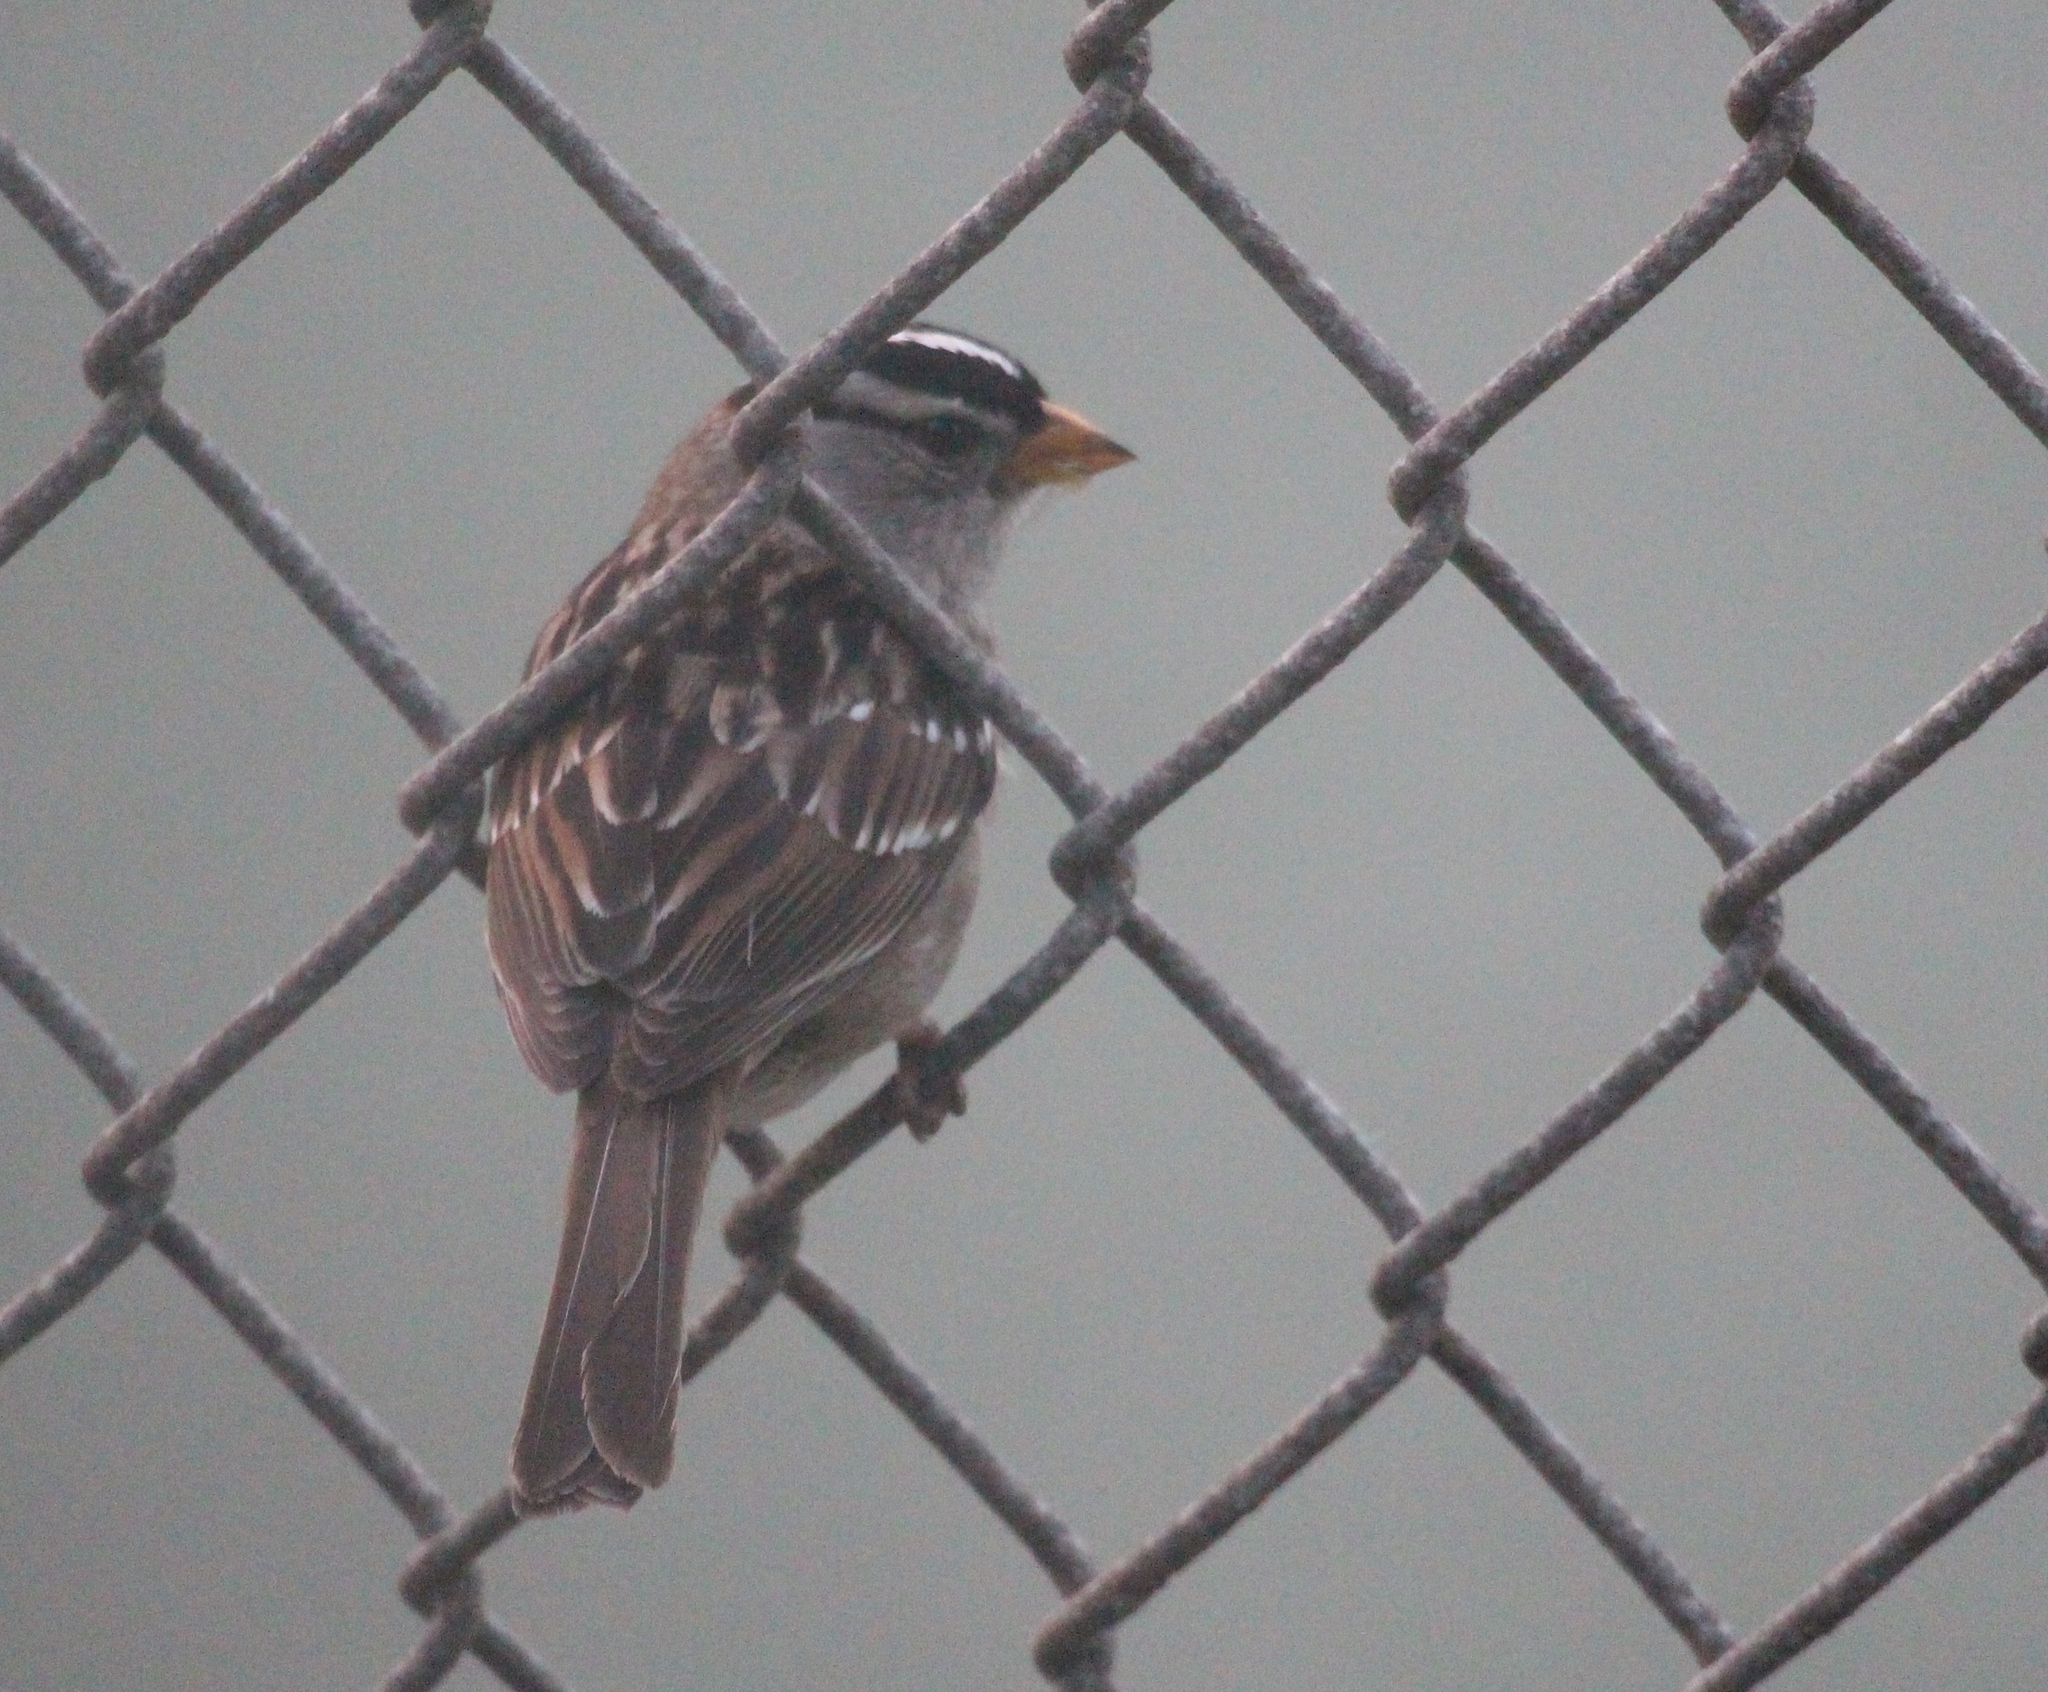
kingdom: Animalia
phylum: Chordata
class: Aves
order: Passeriformes
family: Passerellidae
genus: Zonotrichia
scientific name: Zonotrichia leucophrys
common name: White-crowned sparrow
